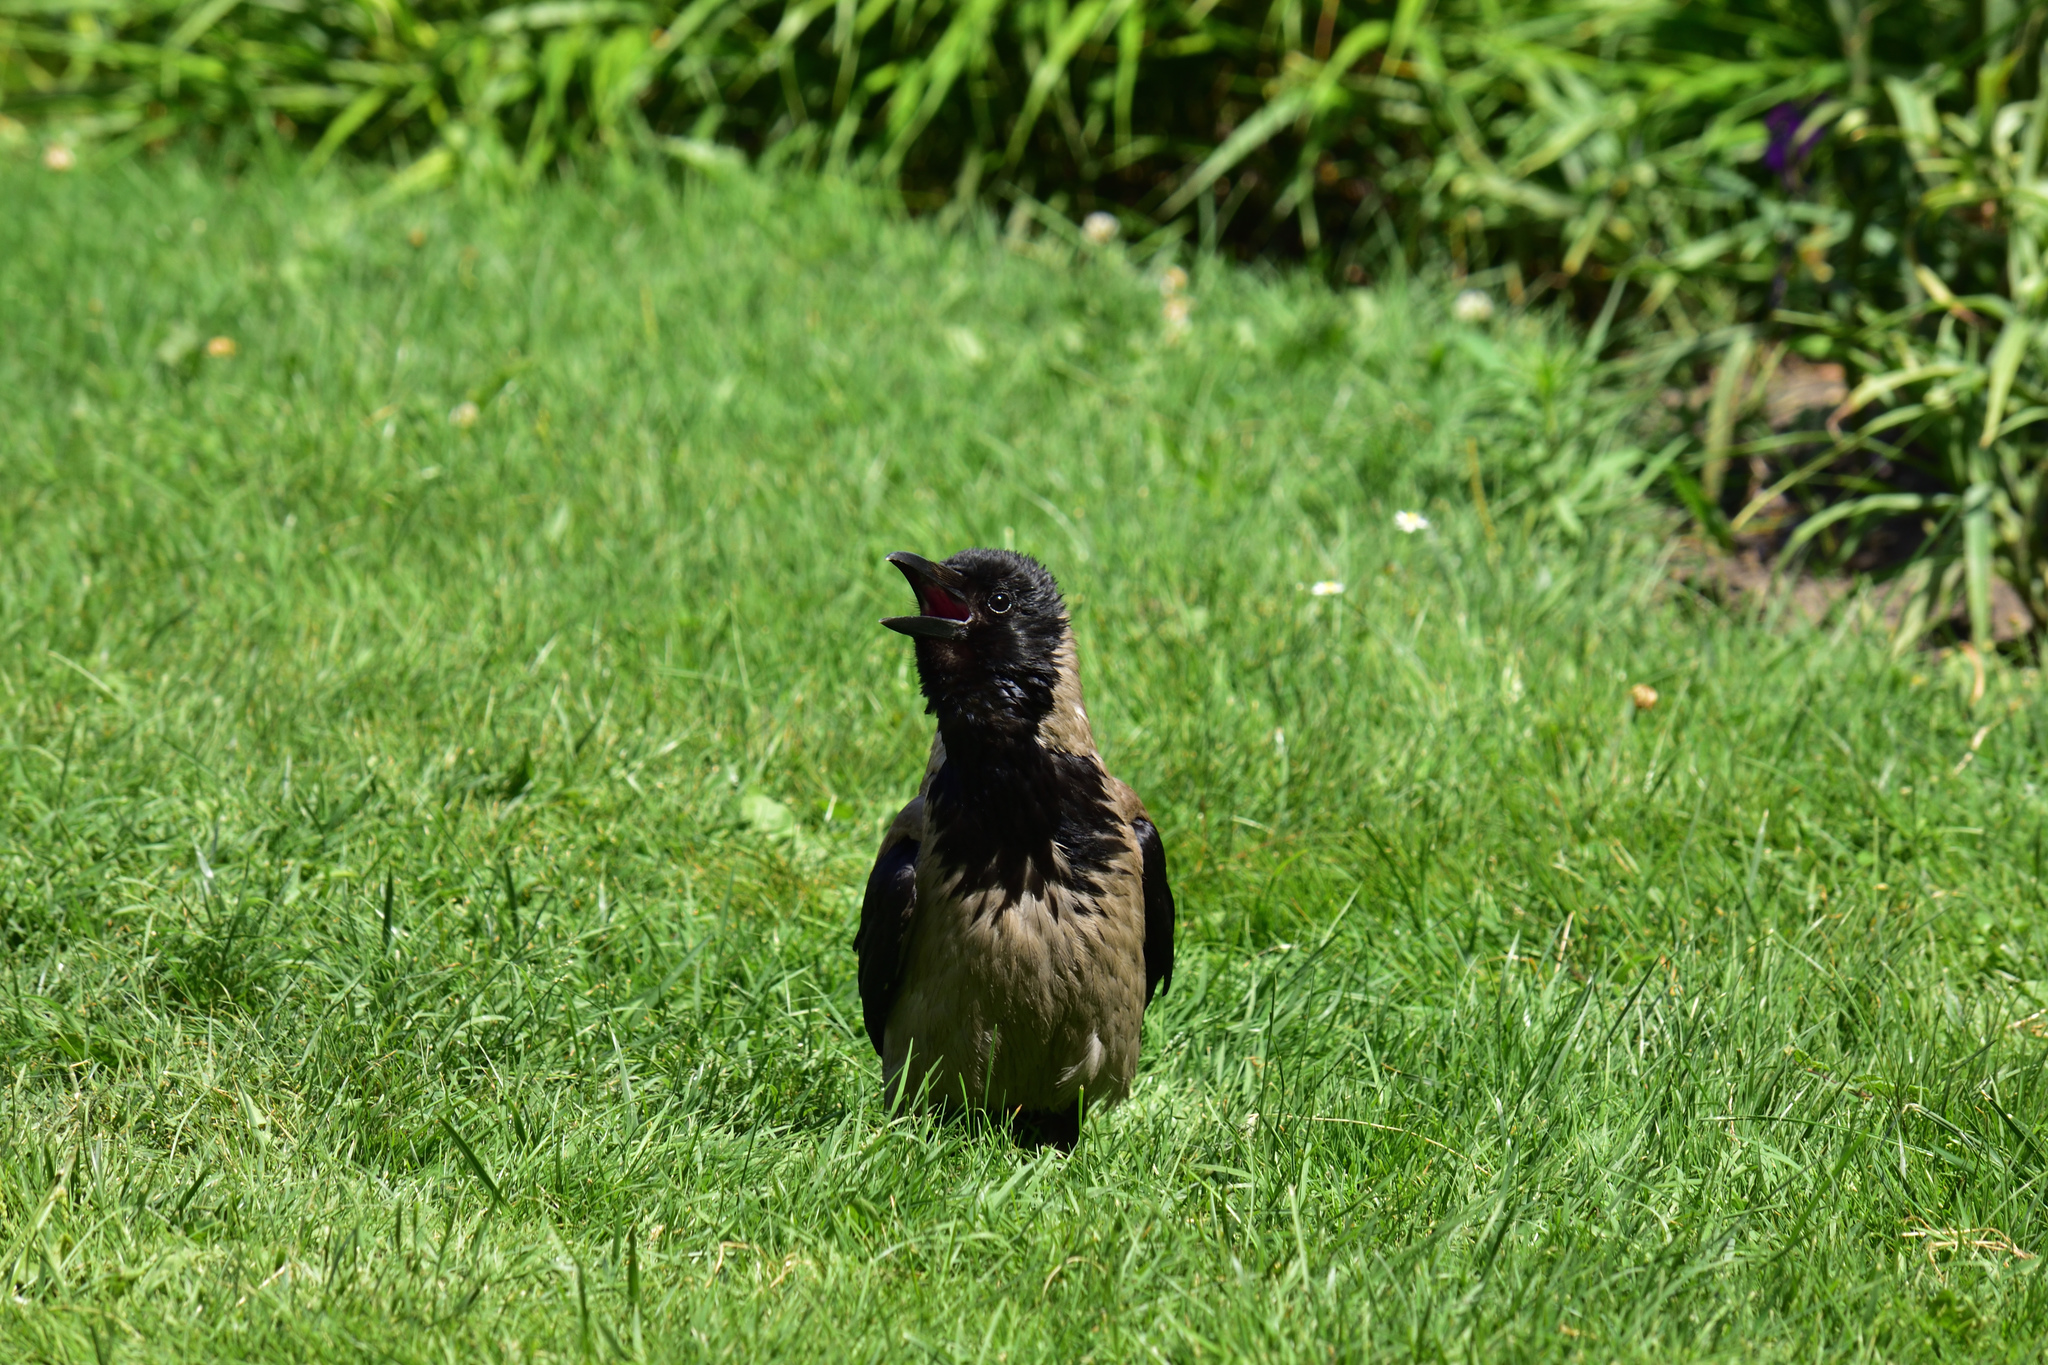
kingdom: Animalia
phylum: Chordata
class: Aves
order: Passeriformes
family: Corvidae
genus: Corvus
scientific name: Corvus cornix
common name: Hooded crow
